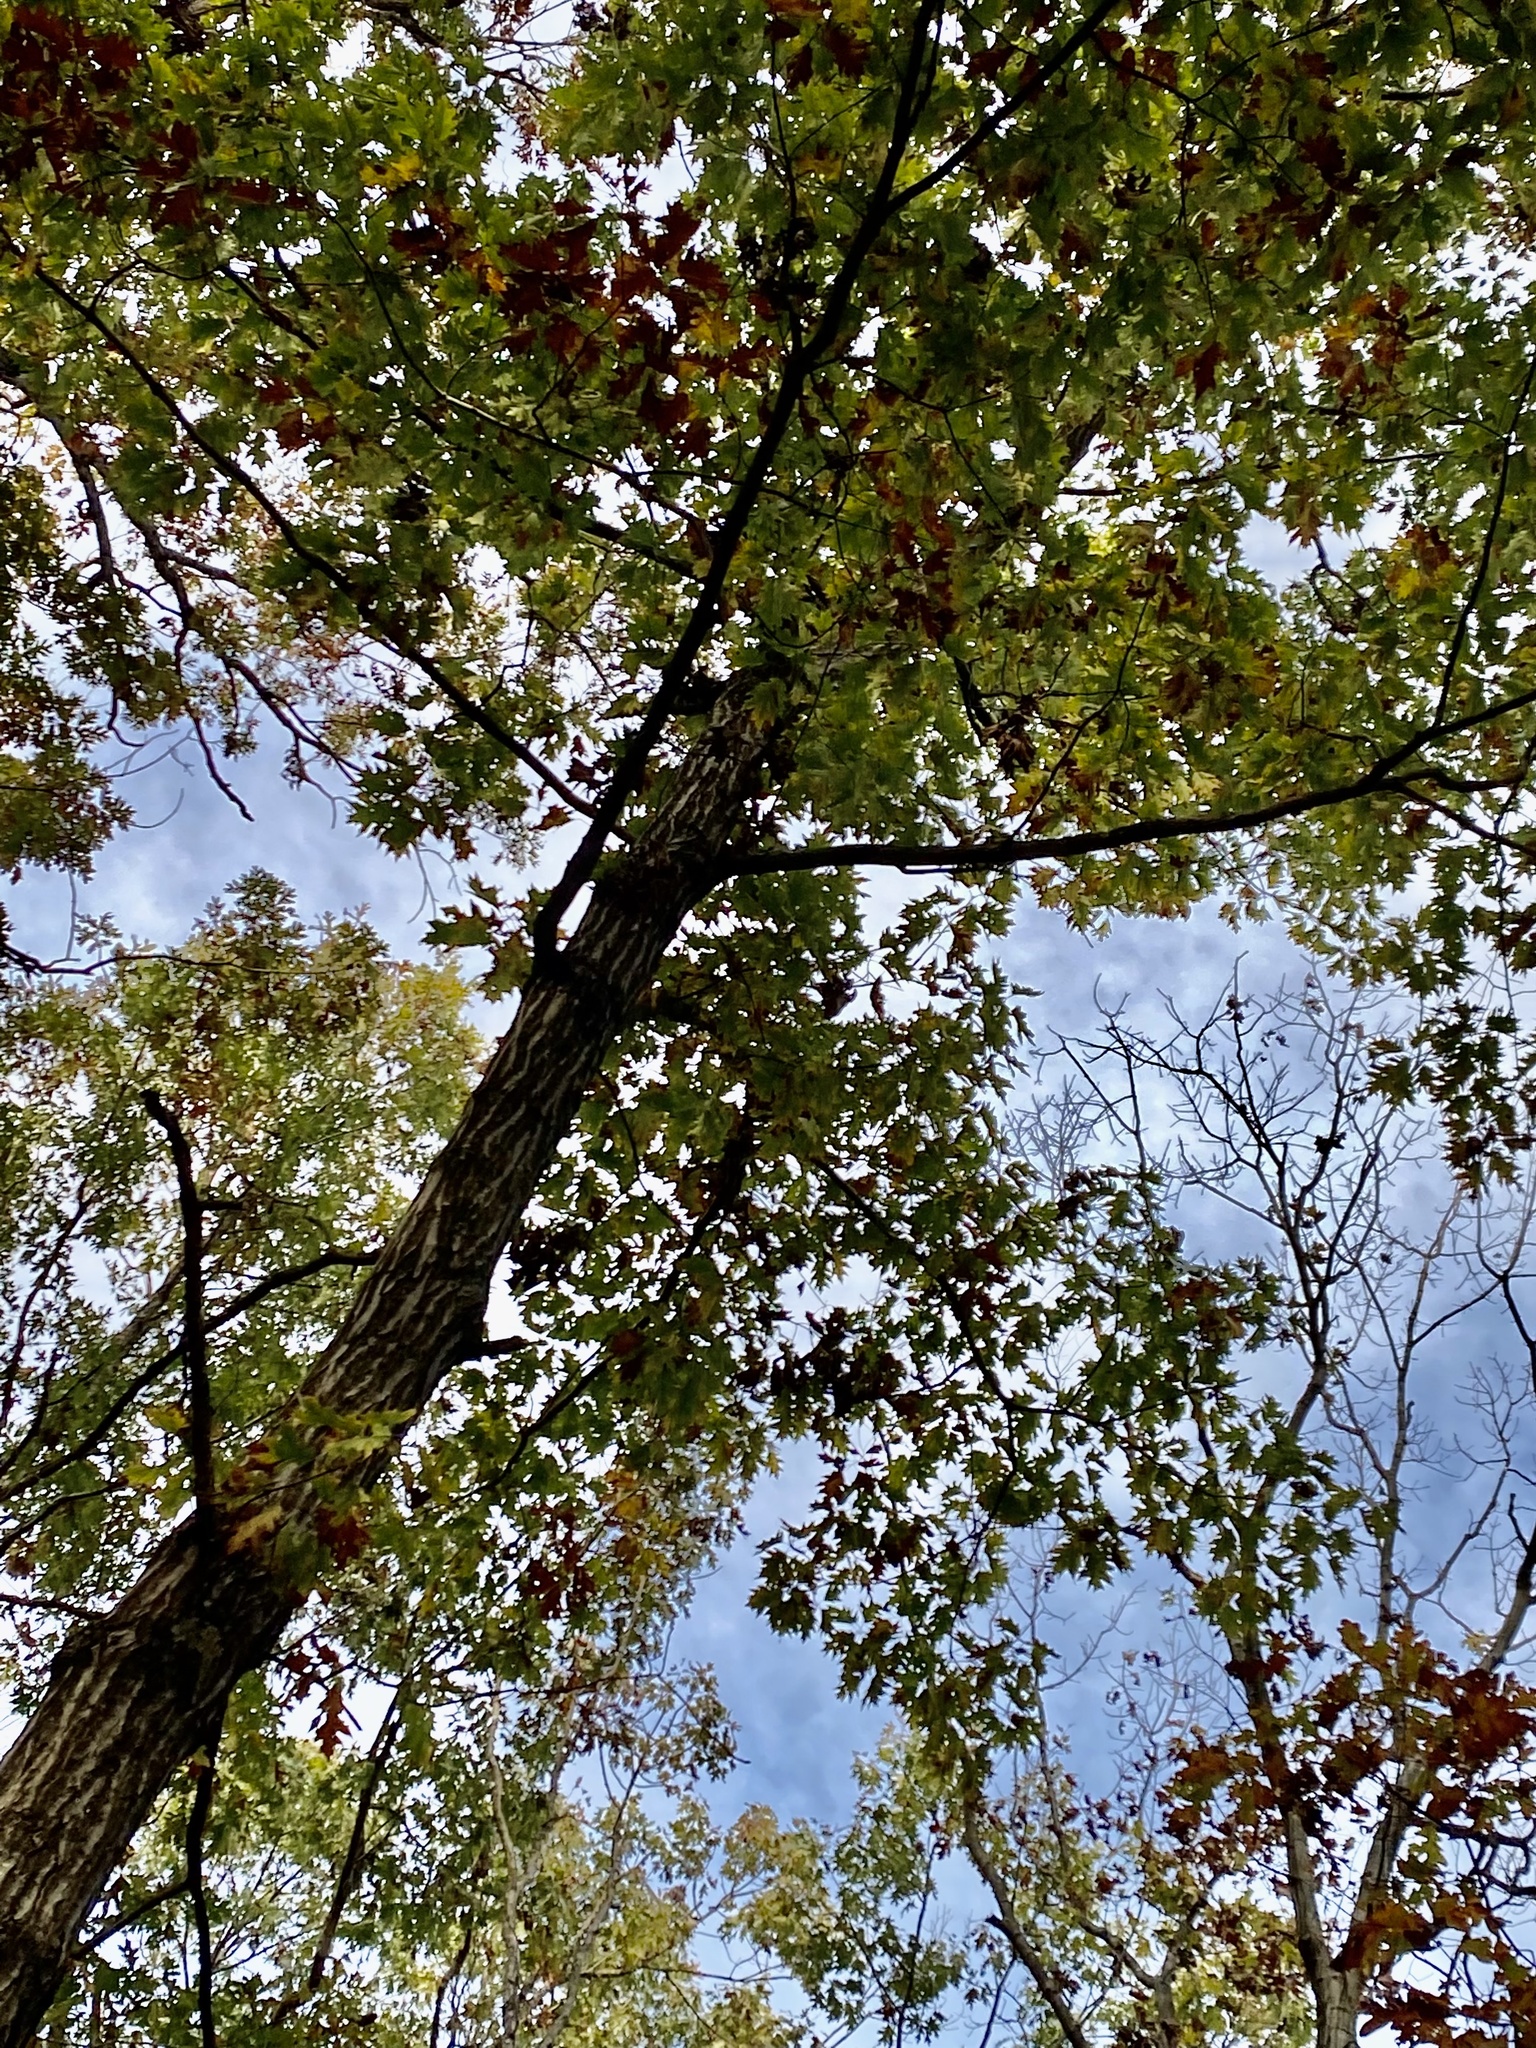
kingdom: Plantae
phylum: Tracheophyta
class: Magnoliopsida
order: Fagales
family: Fagaceae
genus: Quercus
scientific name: Quercus rubra
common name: Red oak
